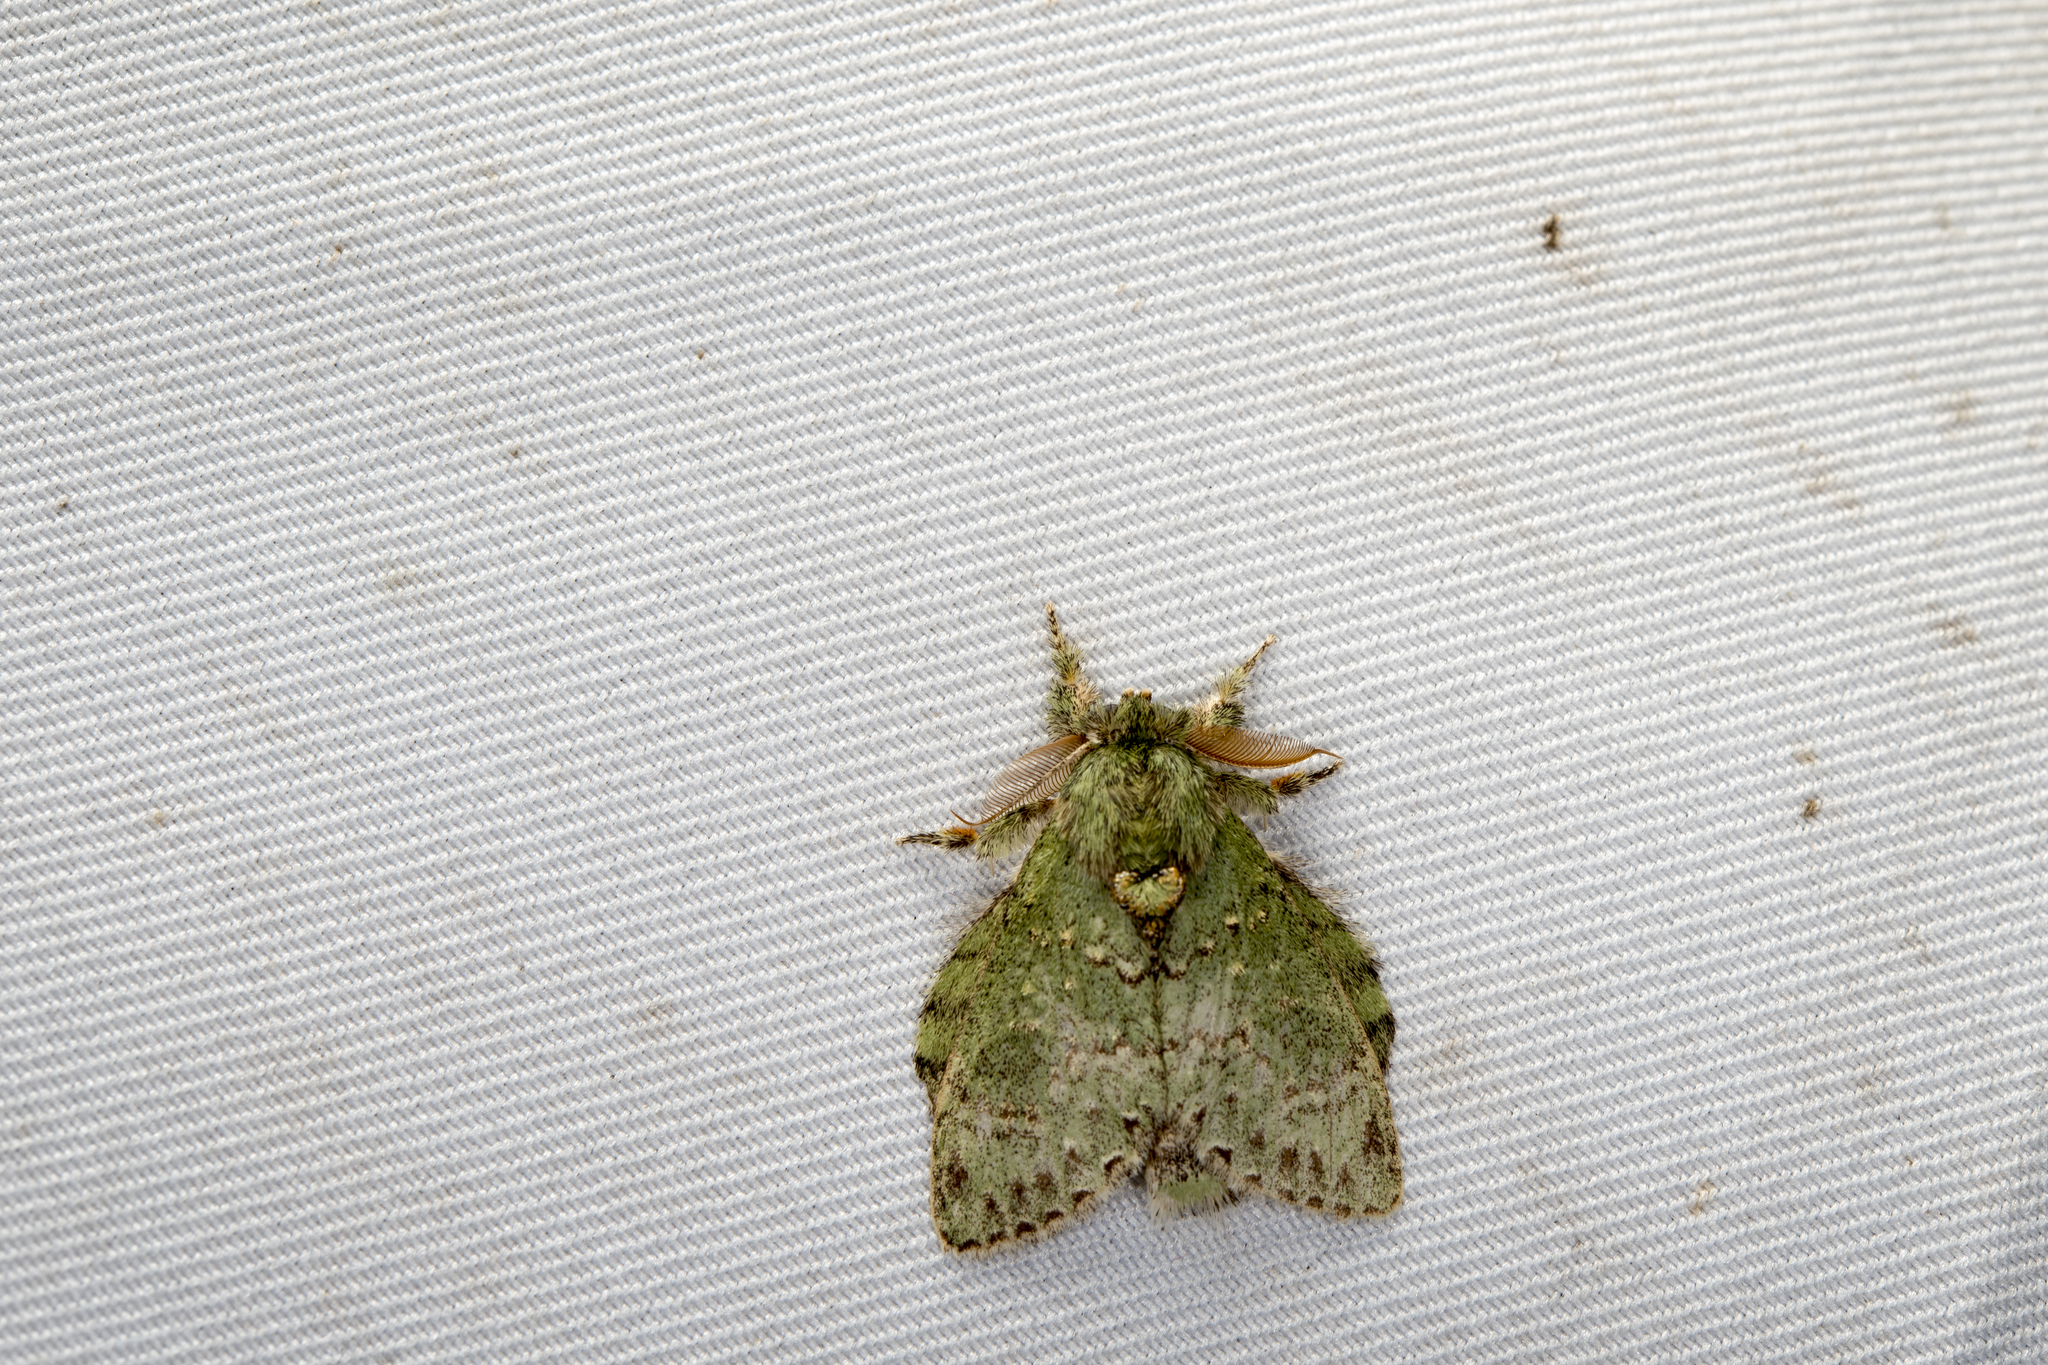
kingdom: Animalia
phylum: Arthropoda
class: Insecta
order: Lepidoptera
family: Notodontidae
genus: Stauropus
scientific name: Stauropus takamukuanus
